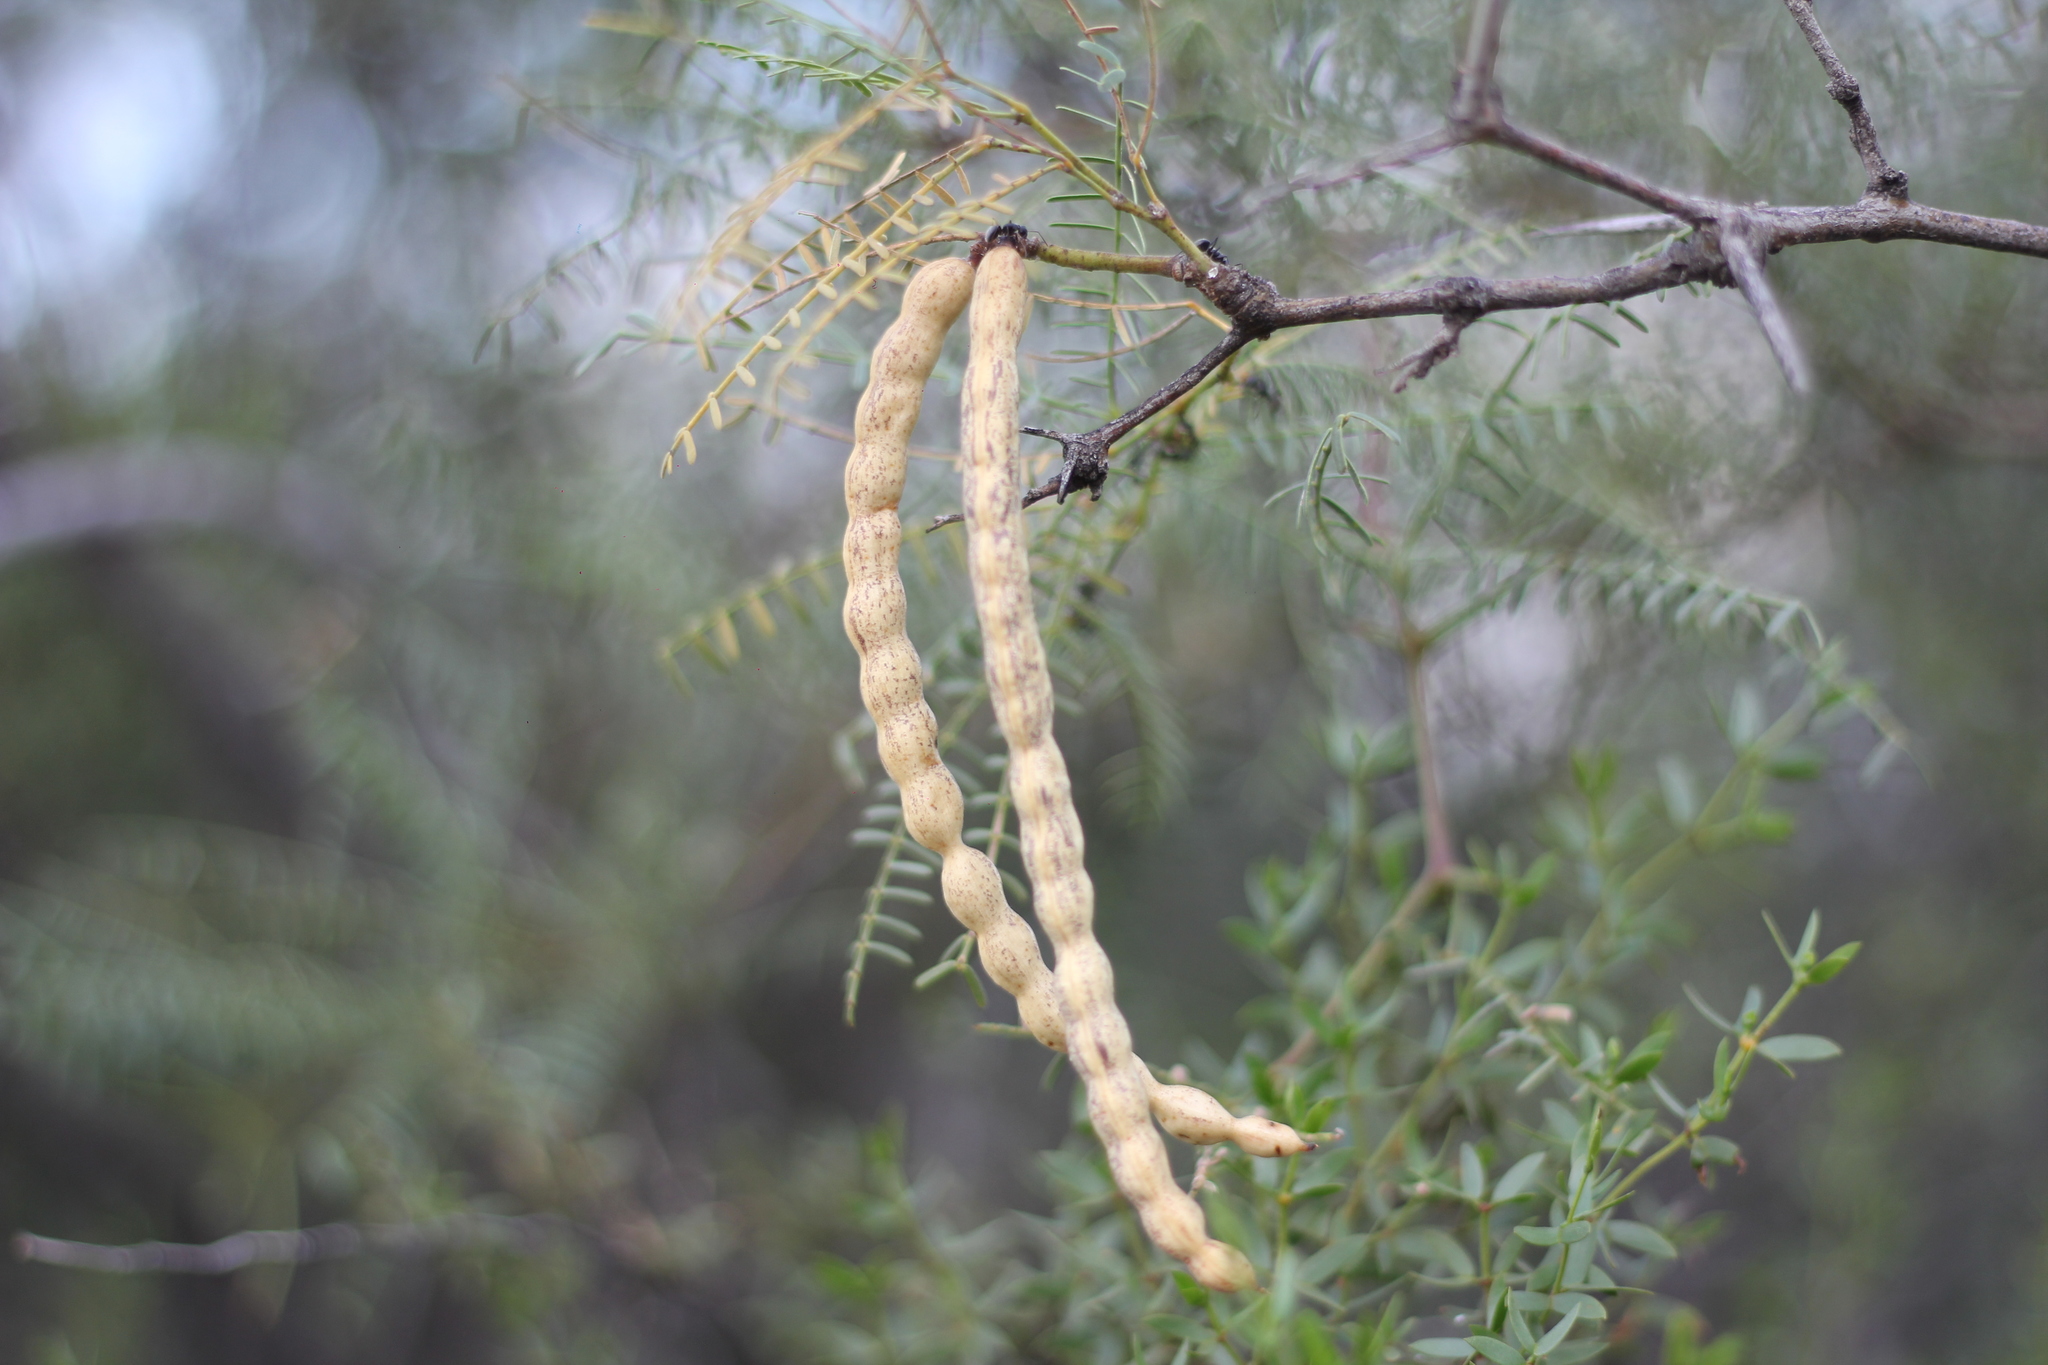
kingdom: Plantae
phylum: Tracheophyta
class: Magnoliopsida
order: Fabales
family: Fabaceae
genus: Prosopis
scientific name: Prosopis flexuosa
